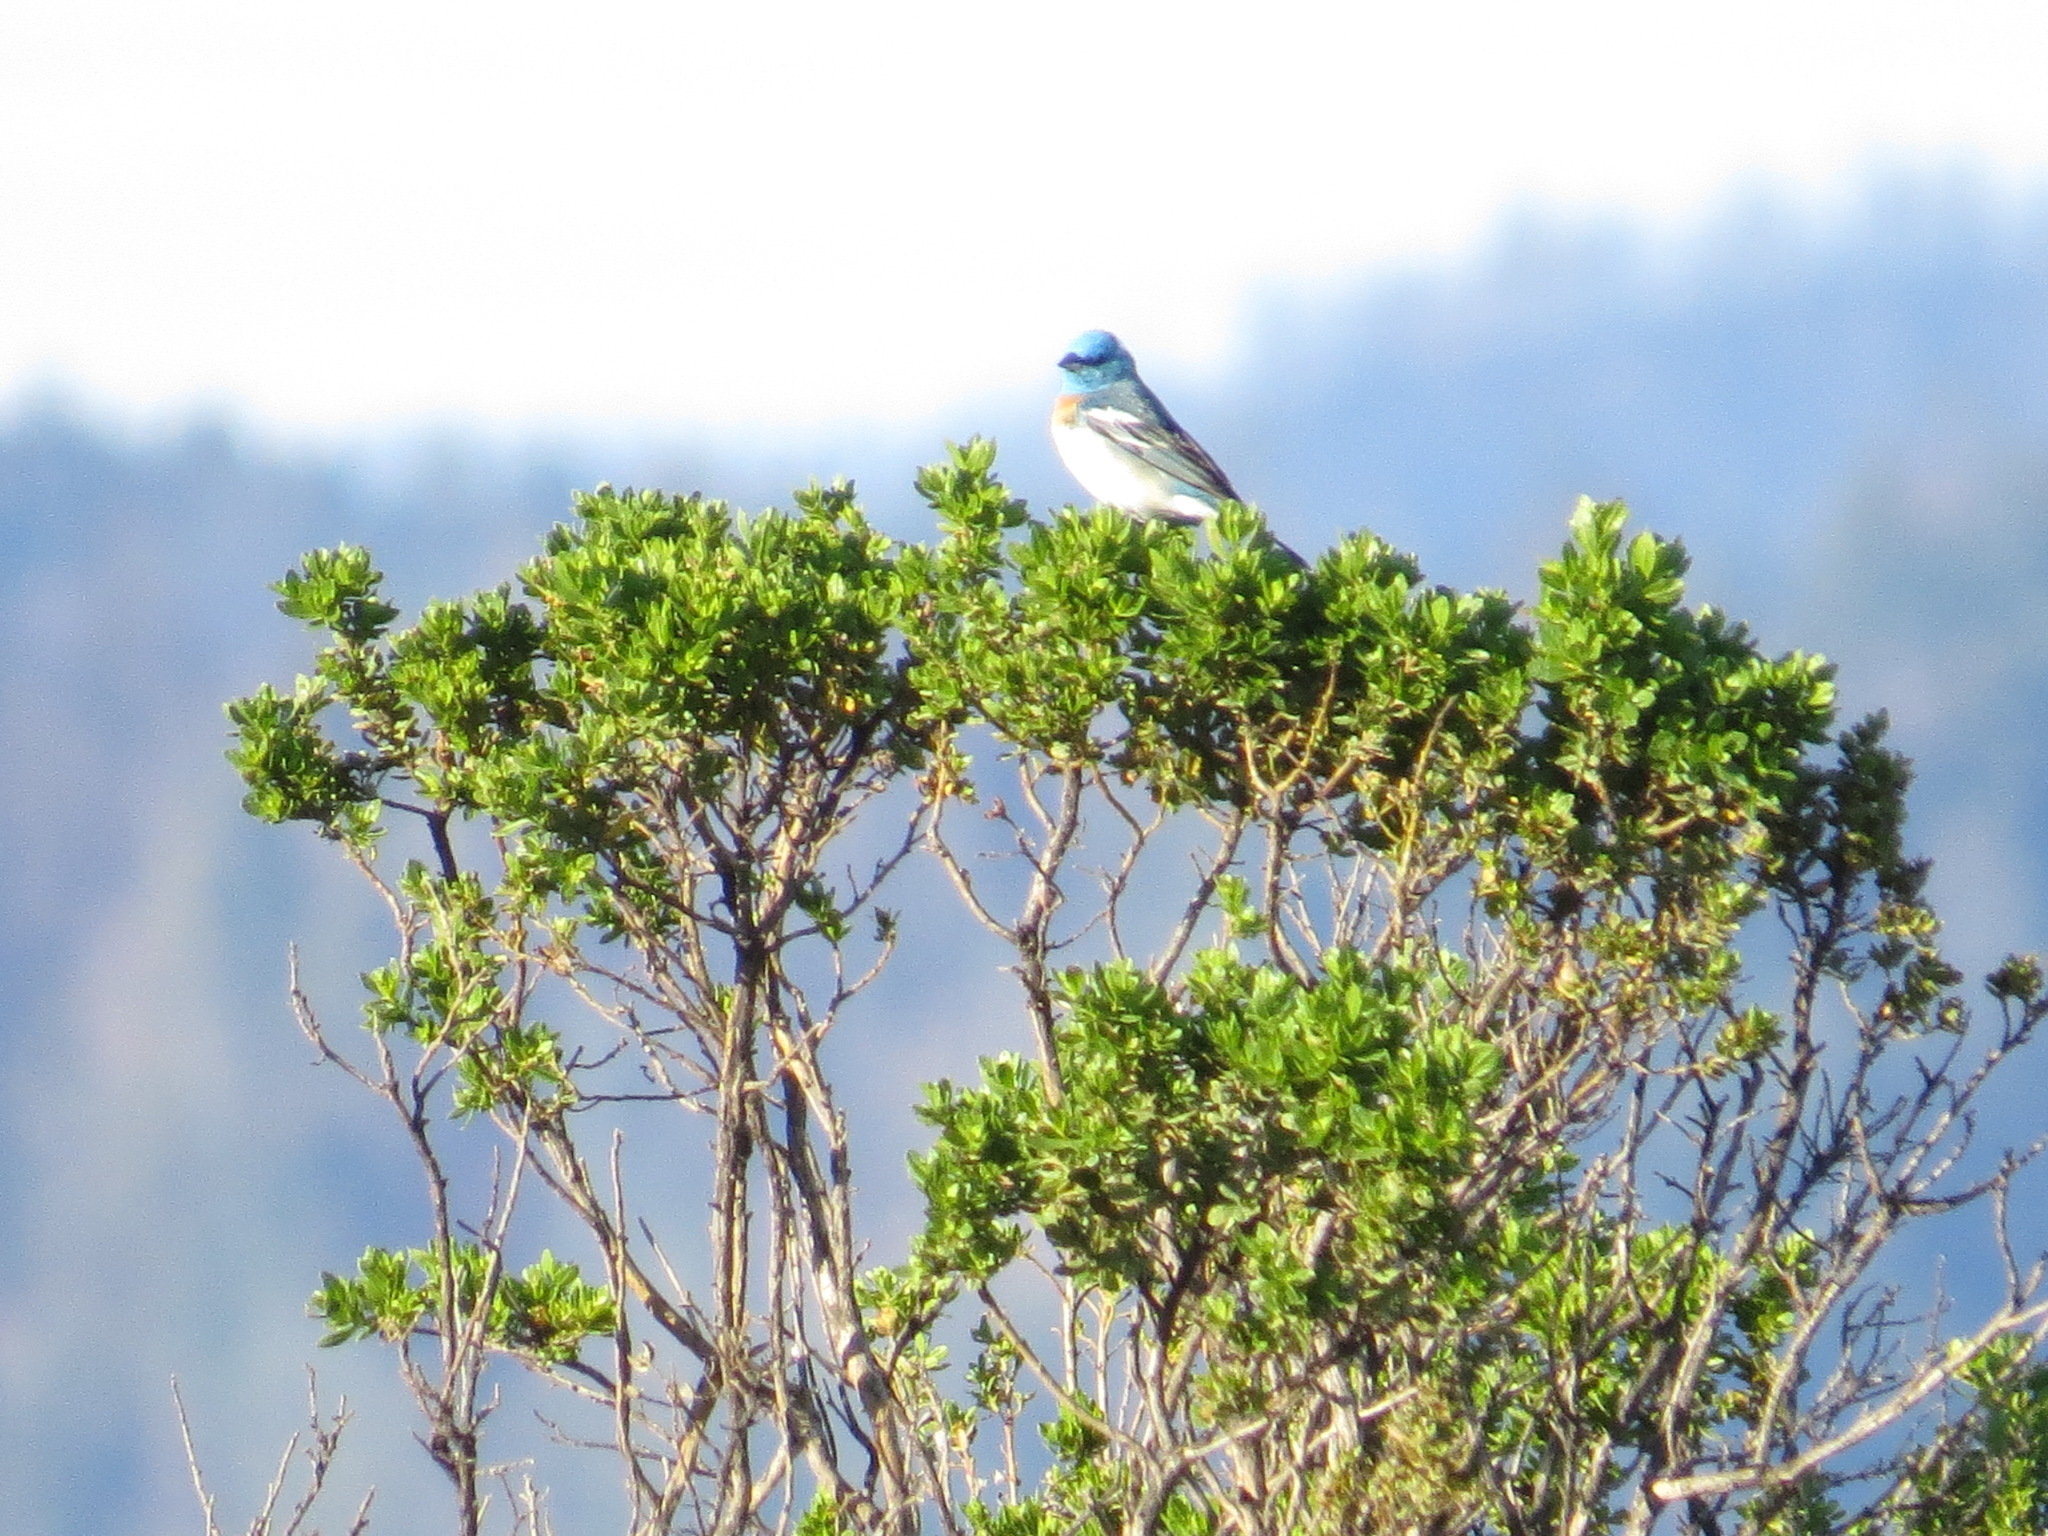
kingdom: Animalia
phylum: Chordata
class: Aves
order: Passeriformes
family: Cardinalidae
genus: Passerina
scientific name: Passerina amoena
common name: Lazuli bunting
